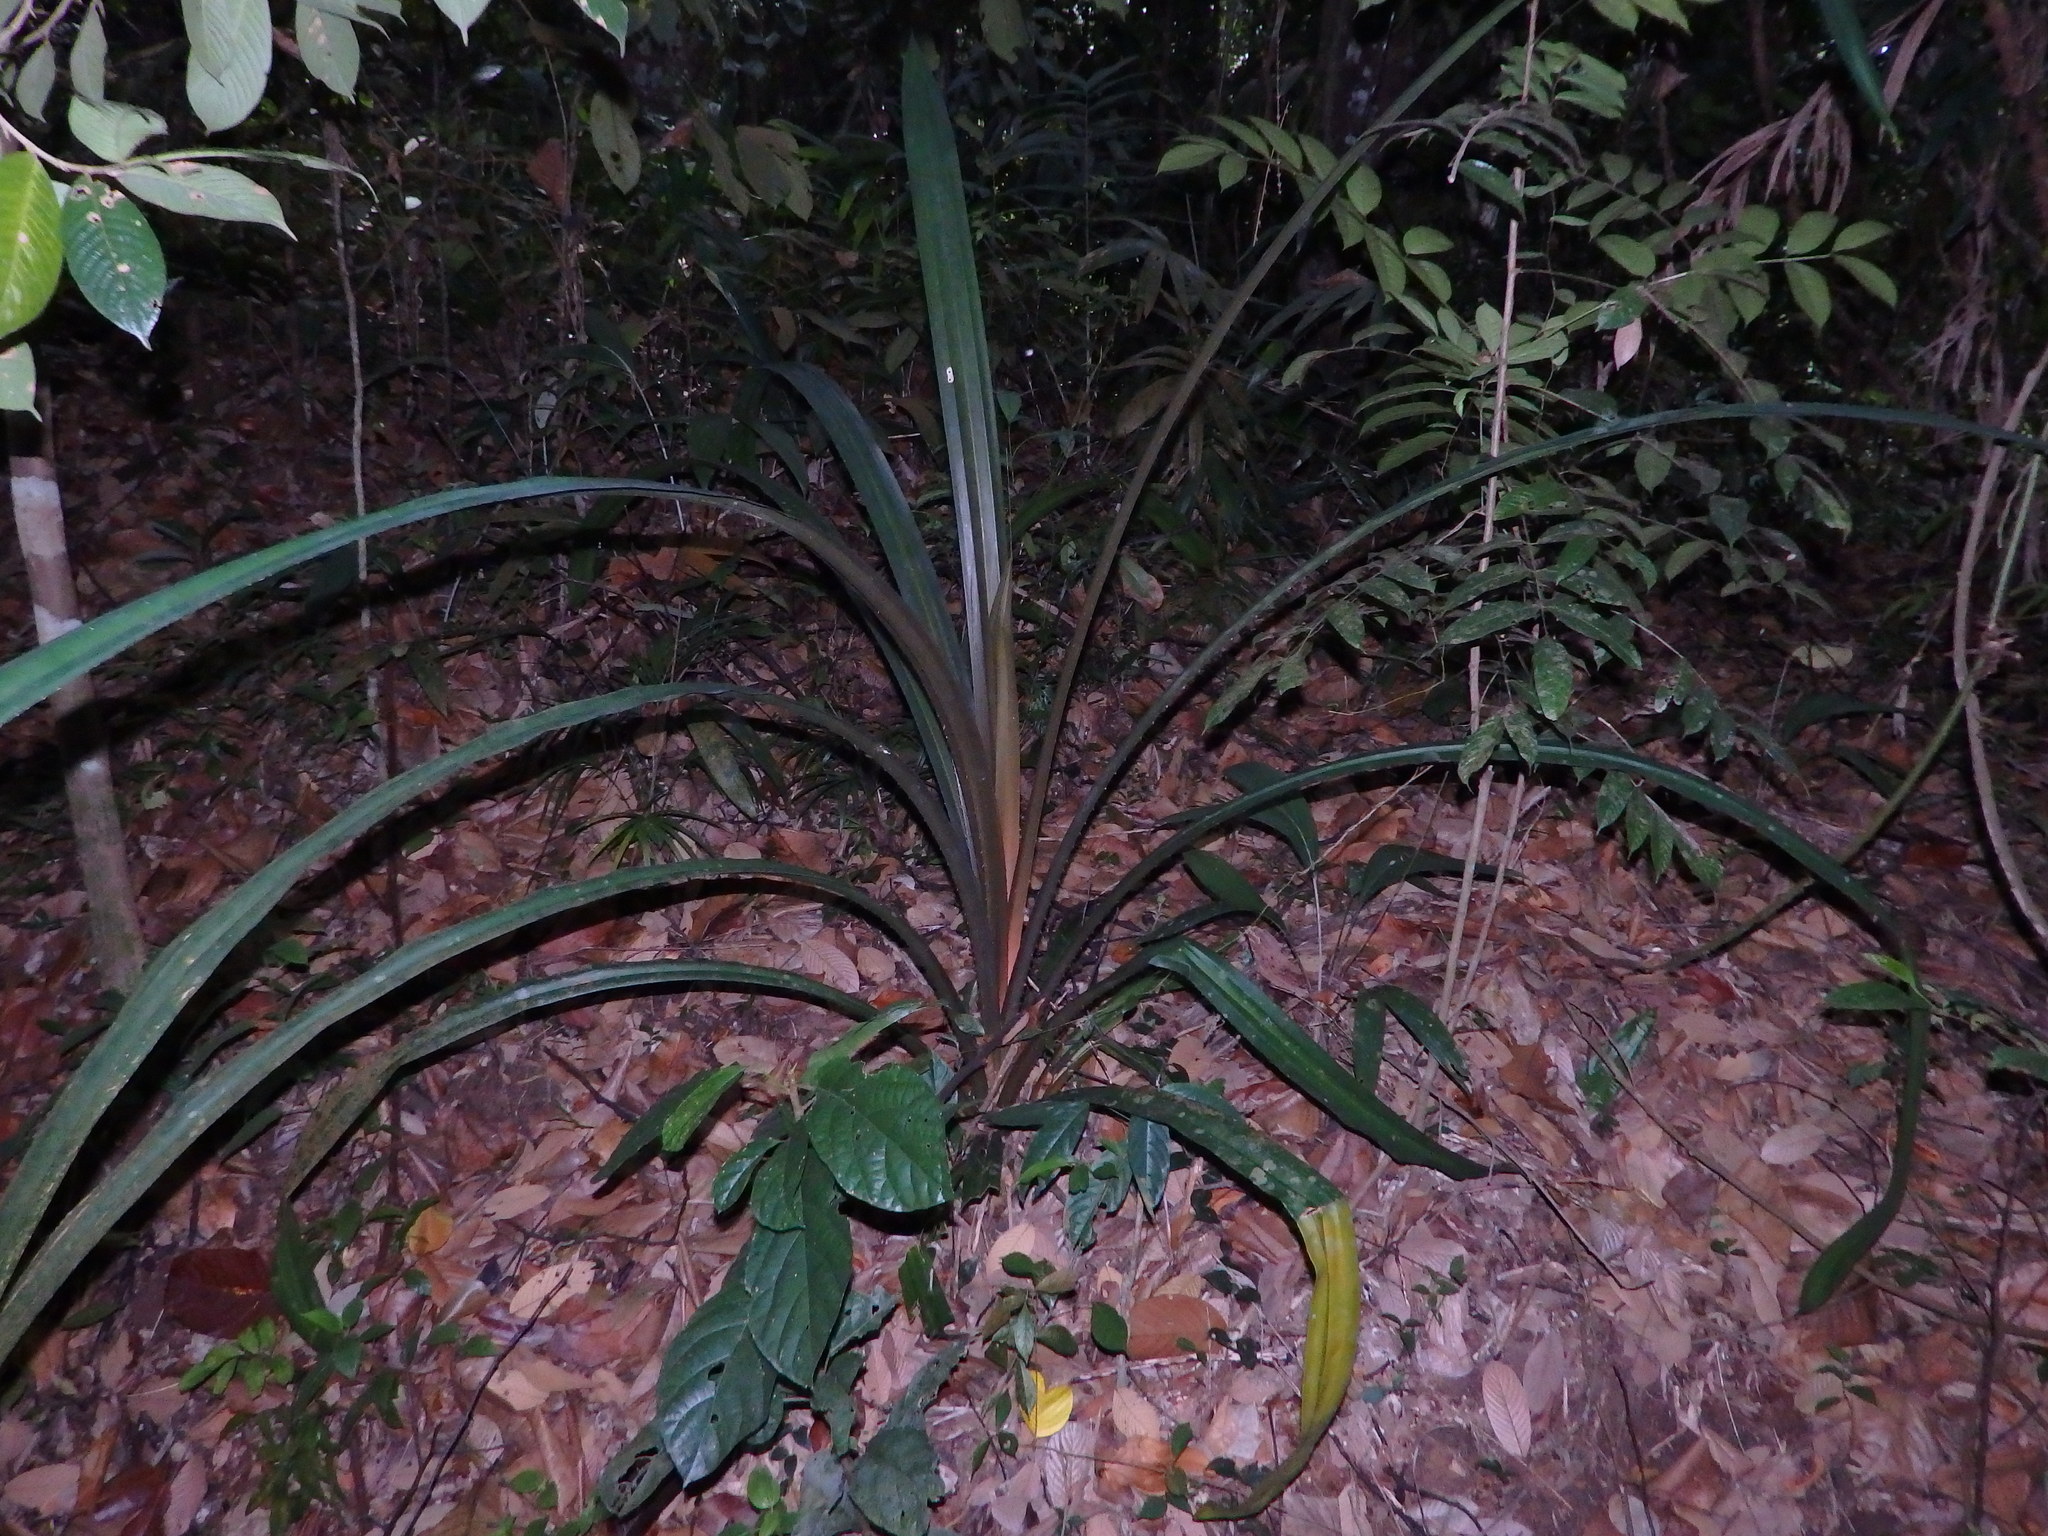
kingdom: Plantae
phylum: Tracheophyta
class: Liliopsida
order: Pandanales
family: Pandanaceae
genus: Pandanus
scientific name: Pandanus houlletii
